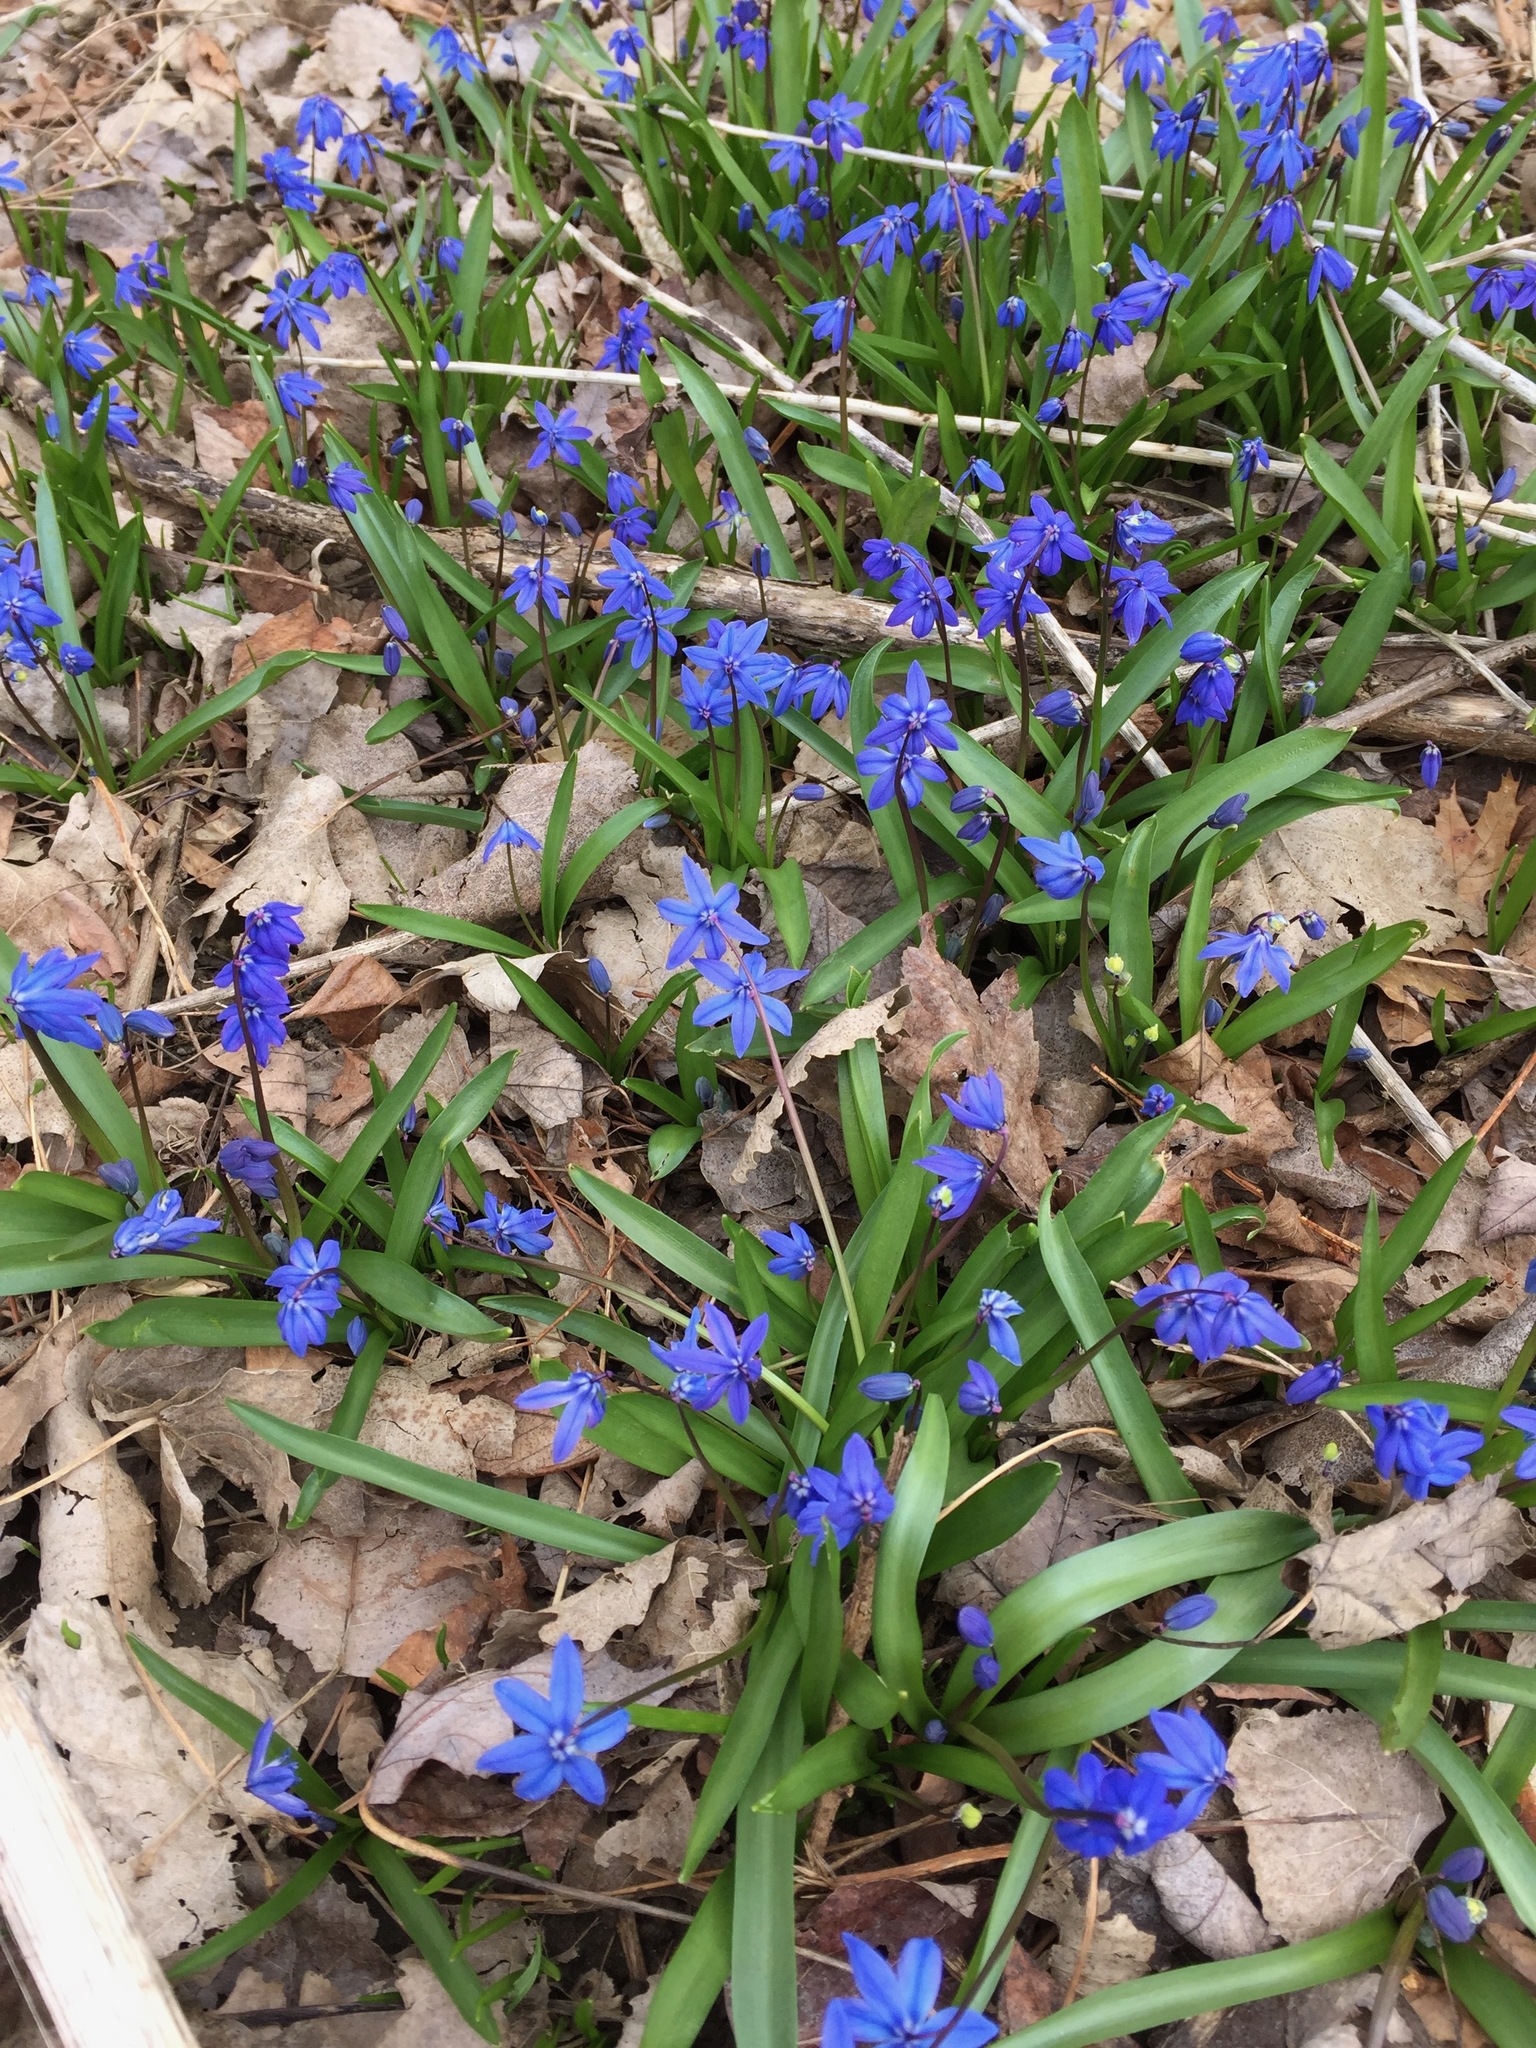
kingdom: Plantae
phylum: Tracheophyta
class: Liliopsida
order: Asparagales
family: Asparagaceae
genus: Scilla
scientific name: Scilla siberica
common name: Siberian squill
